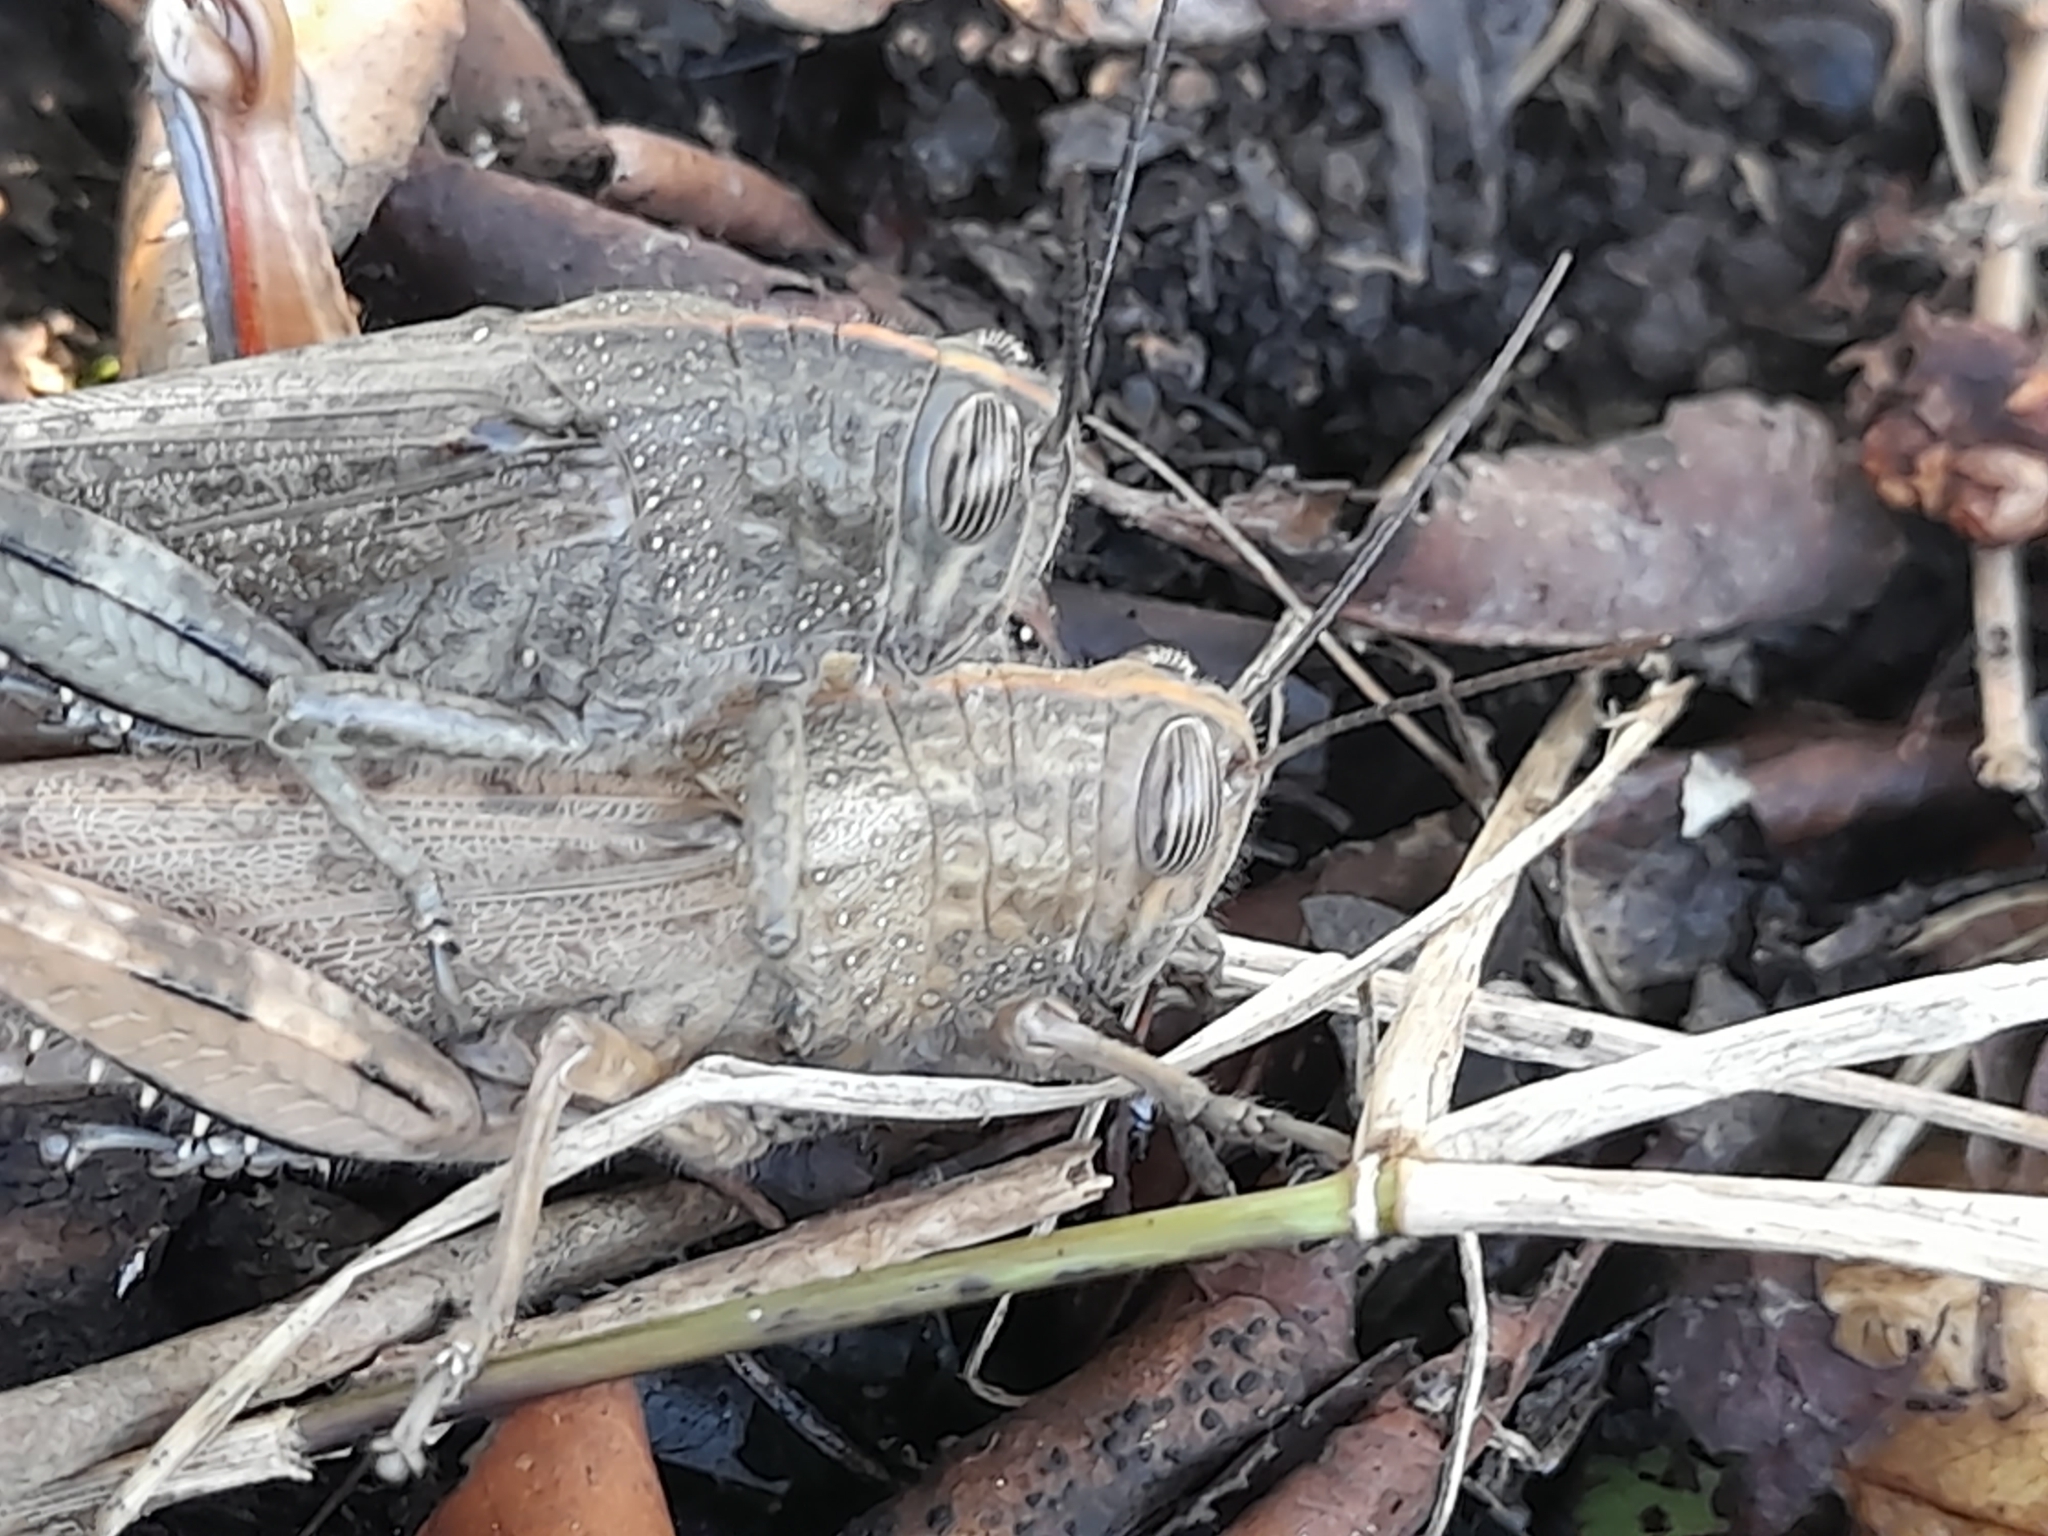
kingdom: Animalia
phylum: Arthropoda
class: Insecta
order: Orthoptera
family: Acrididae
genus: Anacridium
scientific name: Anacridium aegyptium
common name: Egyptian grasshopper
